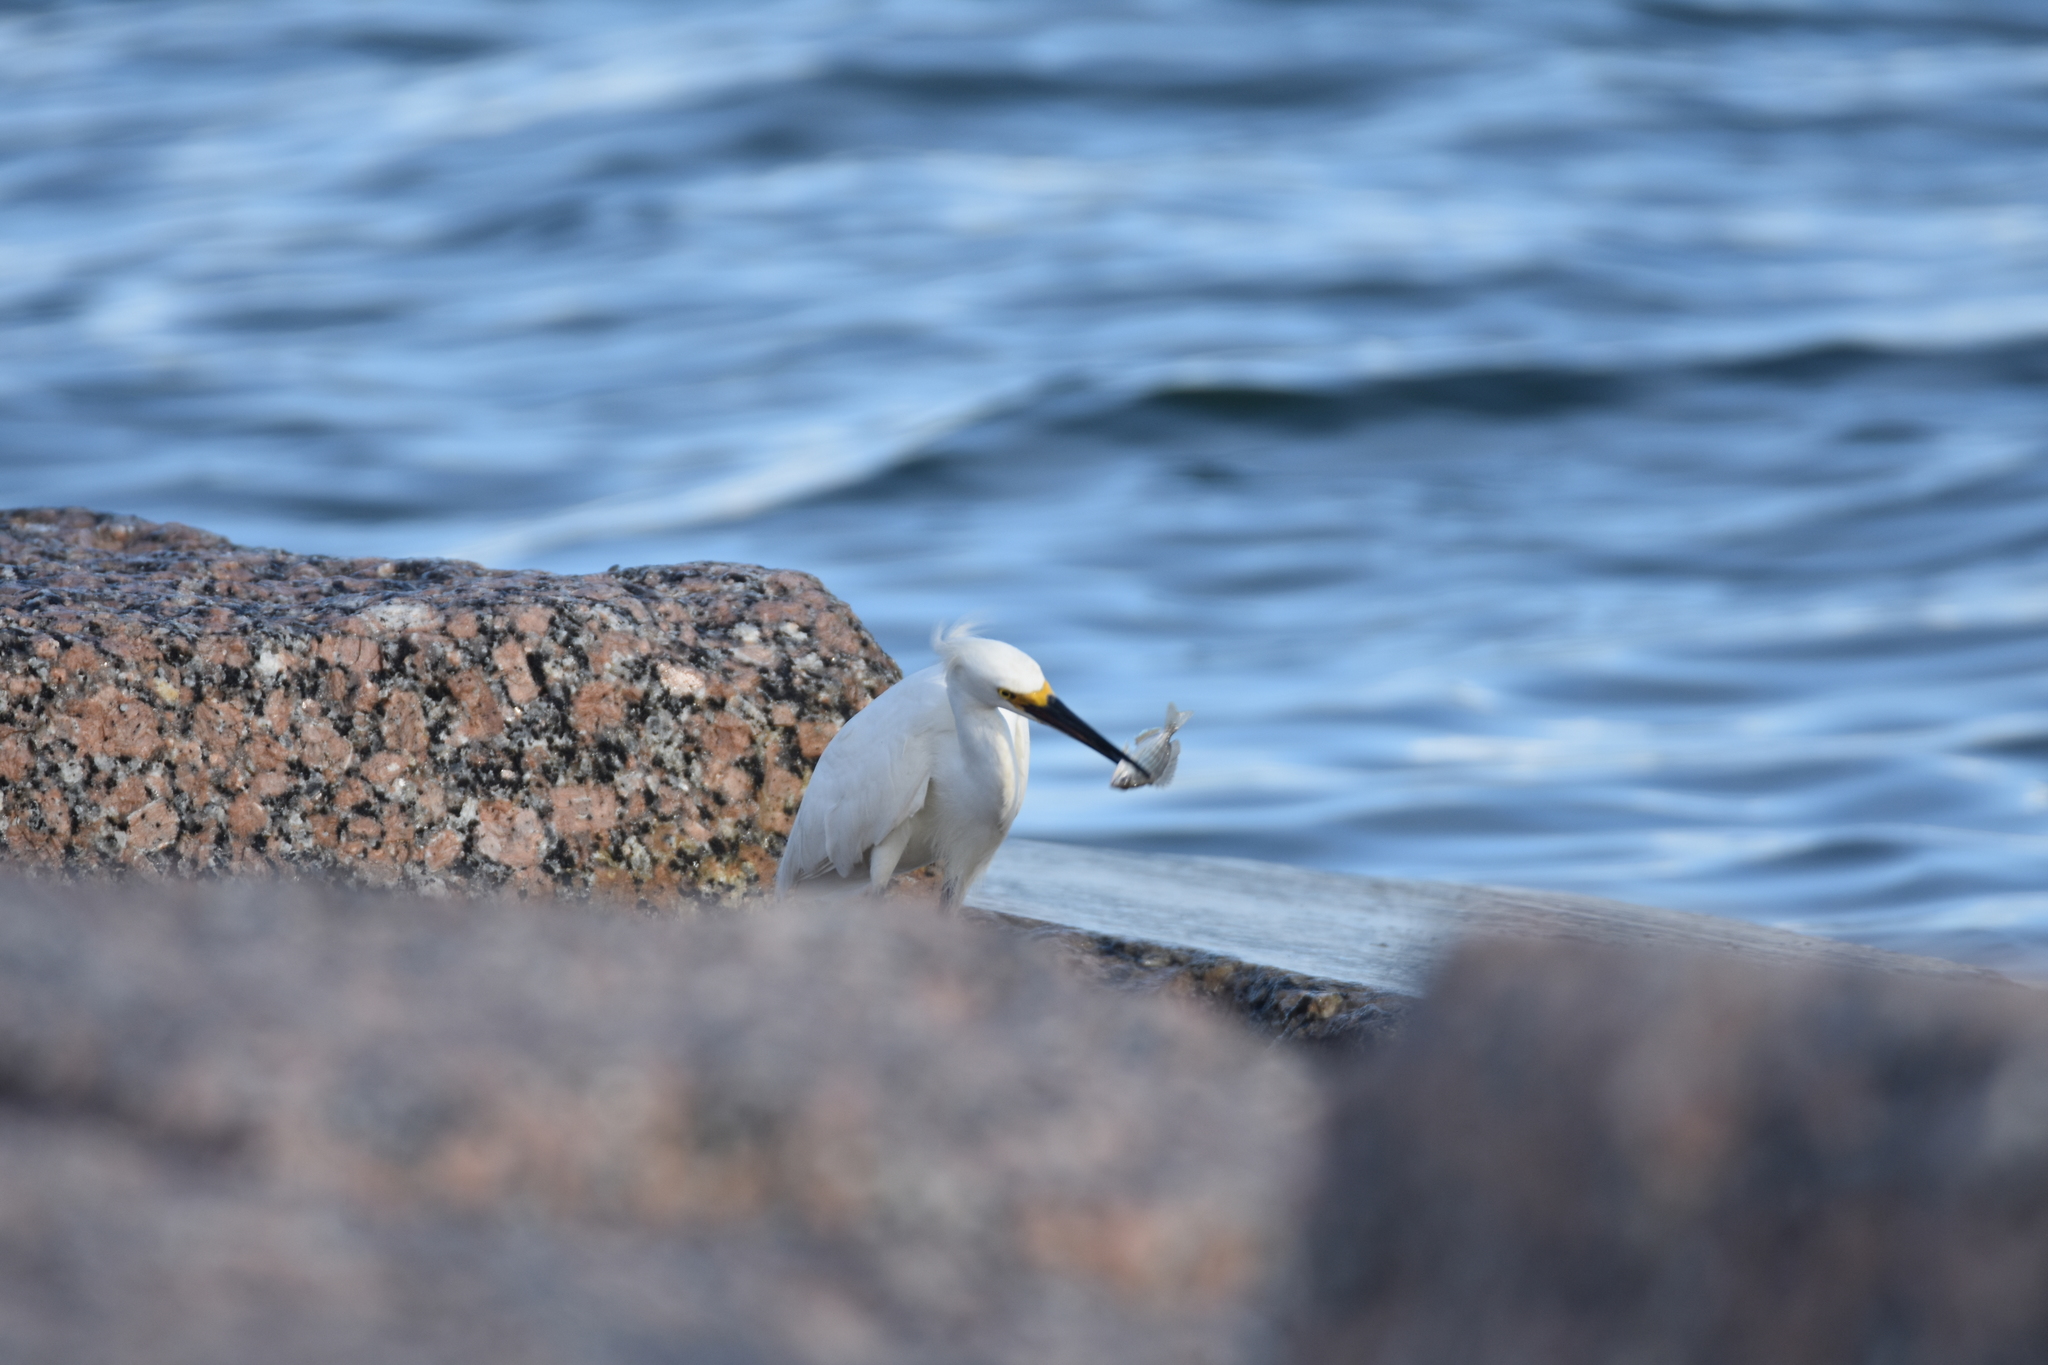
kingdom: Animalia
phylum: Chordata
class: Aves
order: Pelecaniformes
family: Ardeidae
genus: Egretta
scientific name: Egretta thula
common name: Snowy egret
